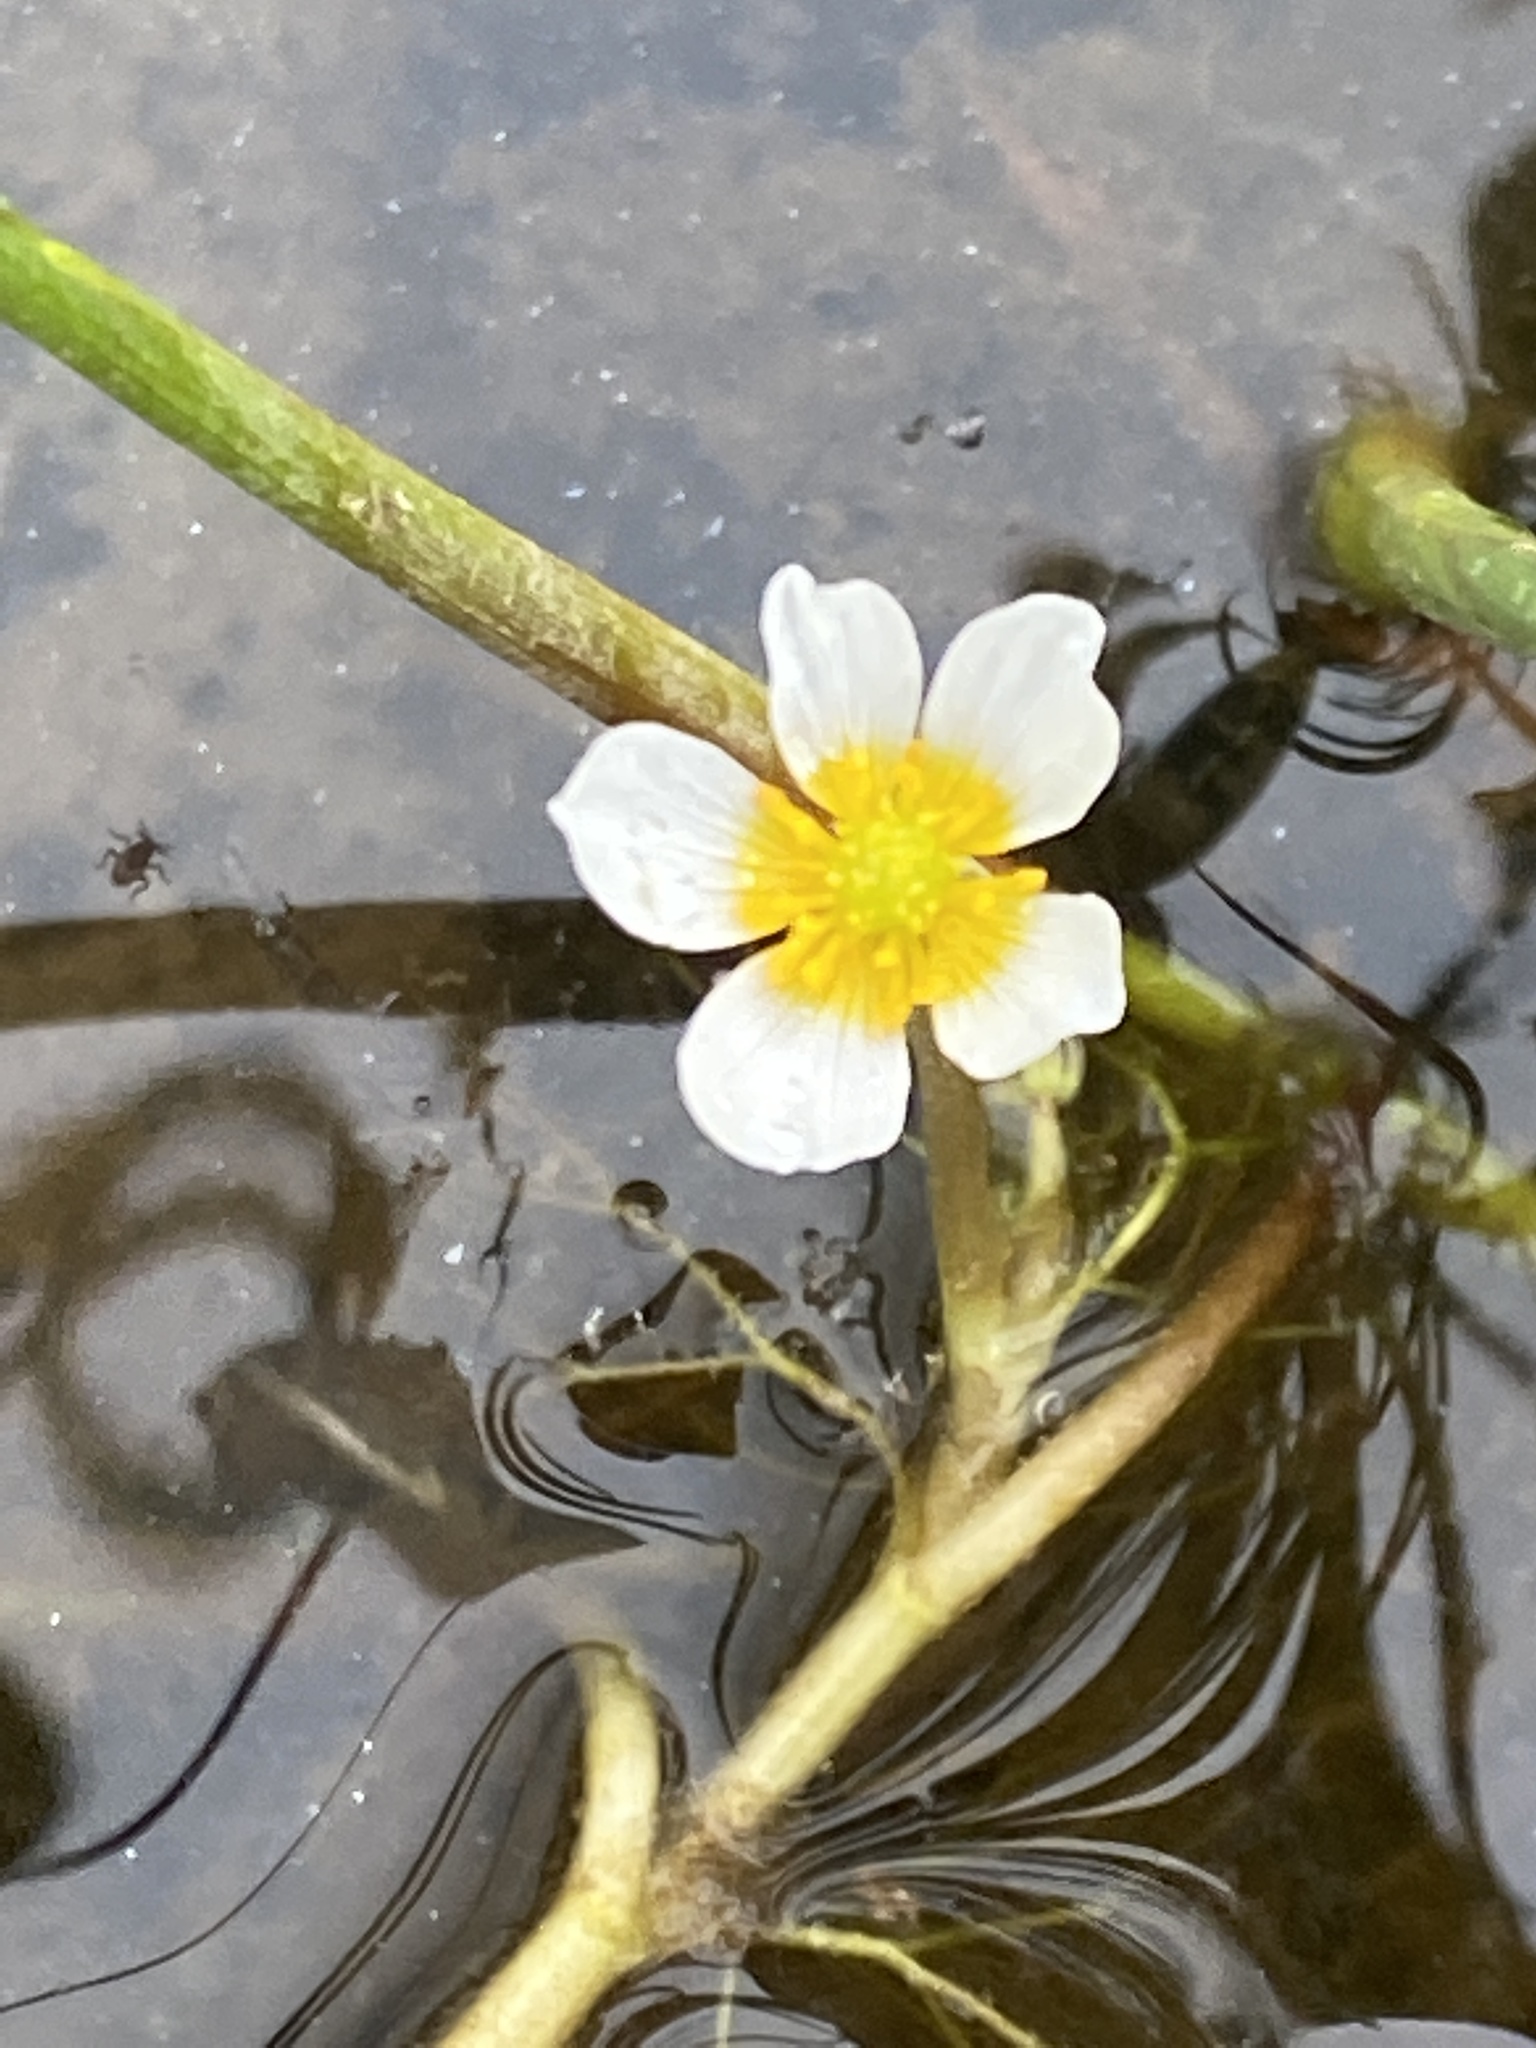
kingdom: Plantae
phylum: Tracheophyta
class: Magnoliopsida
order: Ranunculales
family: Ranunculaceae
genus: Ranunculus
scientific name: Ranunculus trichophyllus
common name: Thread-leaved water-crowfoot
